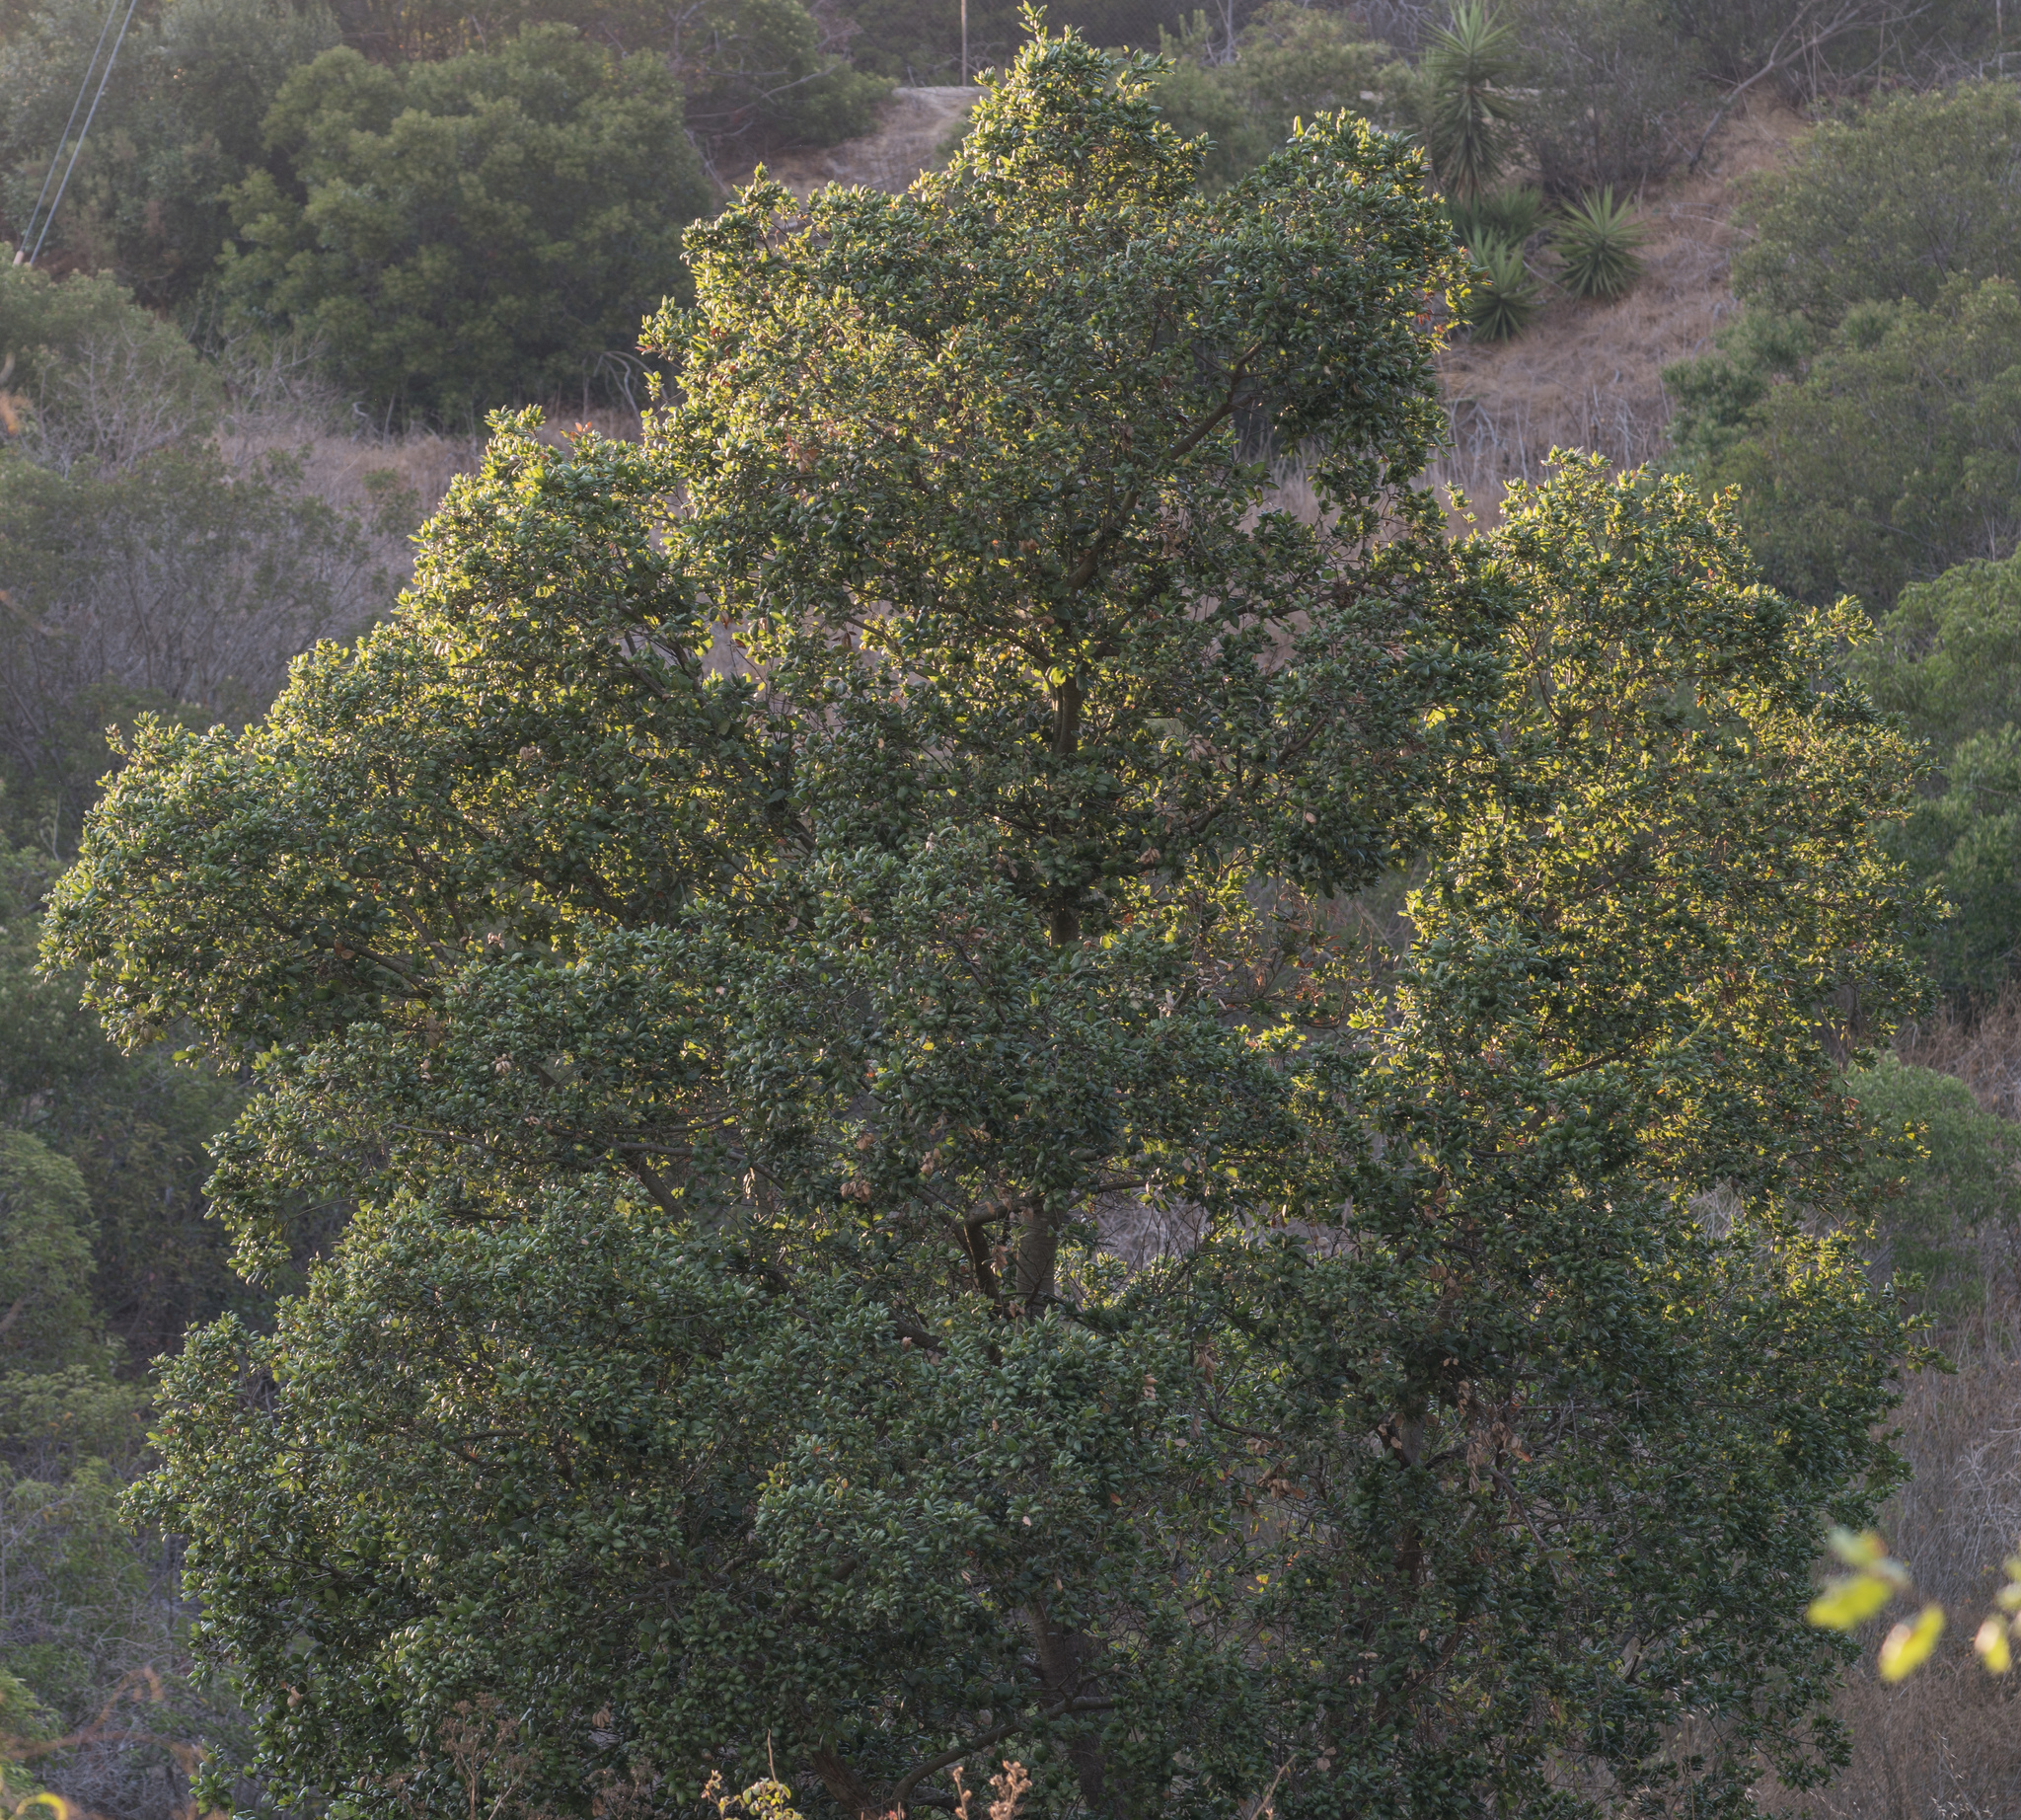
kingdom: Plantae
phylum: Tracheophyta
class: Magnoliopsida
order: Fagales
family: Fagaceae
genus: Quercus
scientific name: Quercus agrifolia
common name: California live oak
